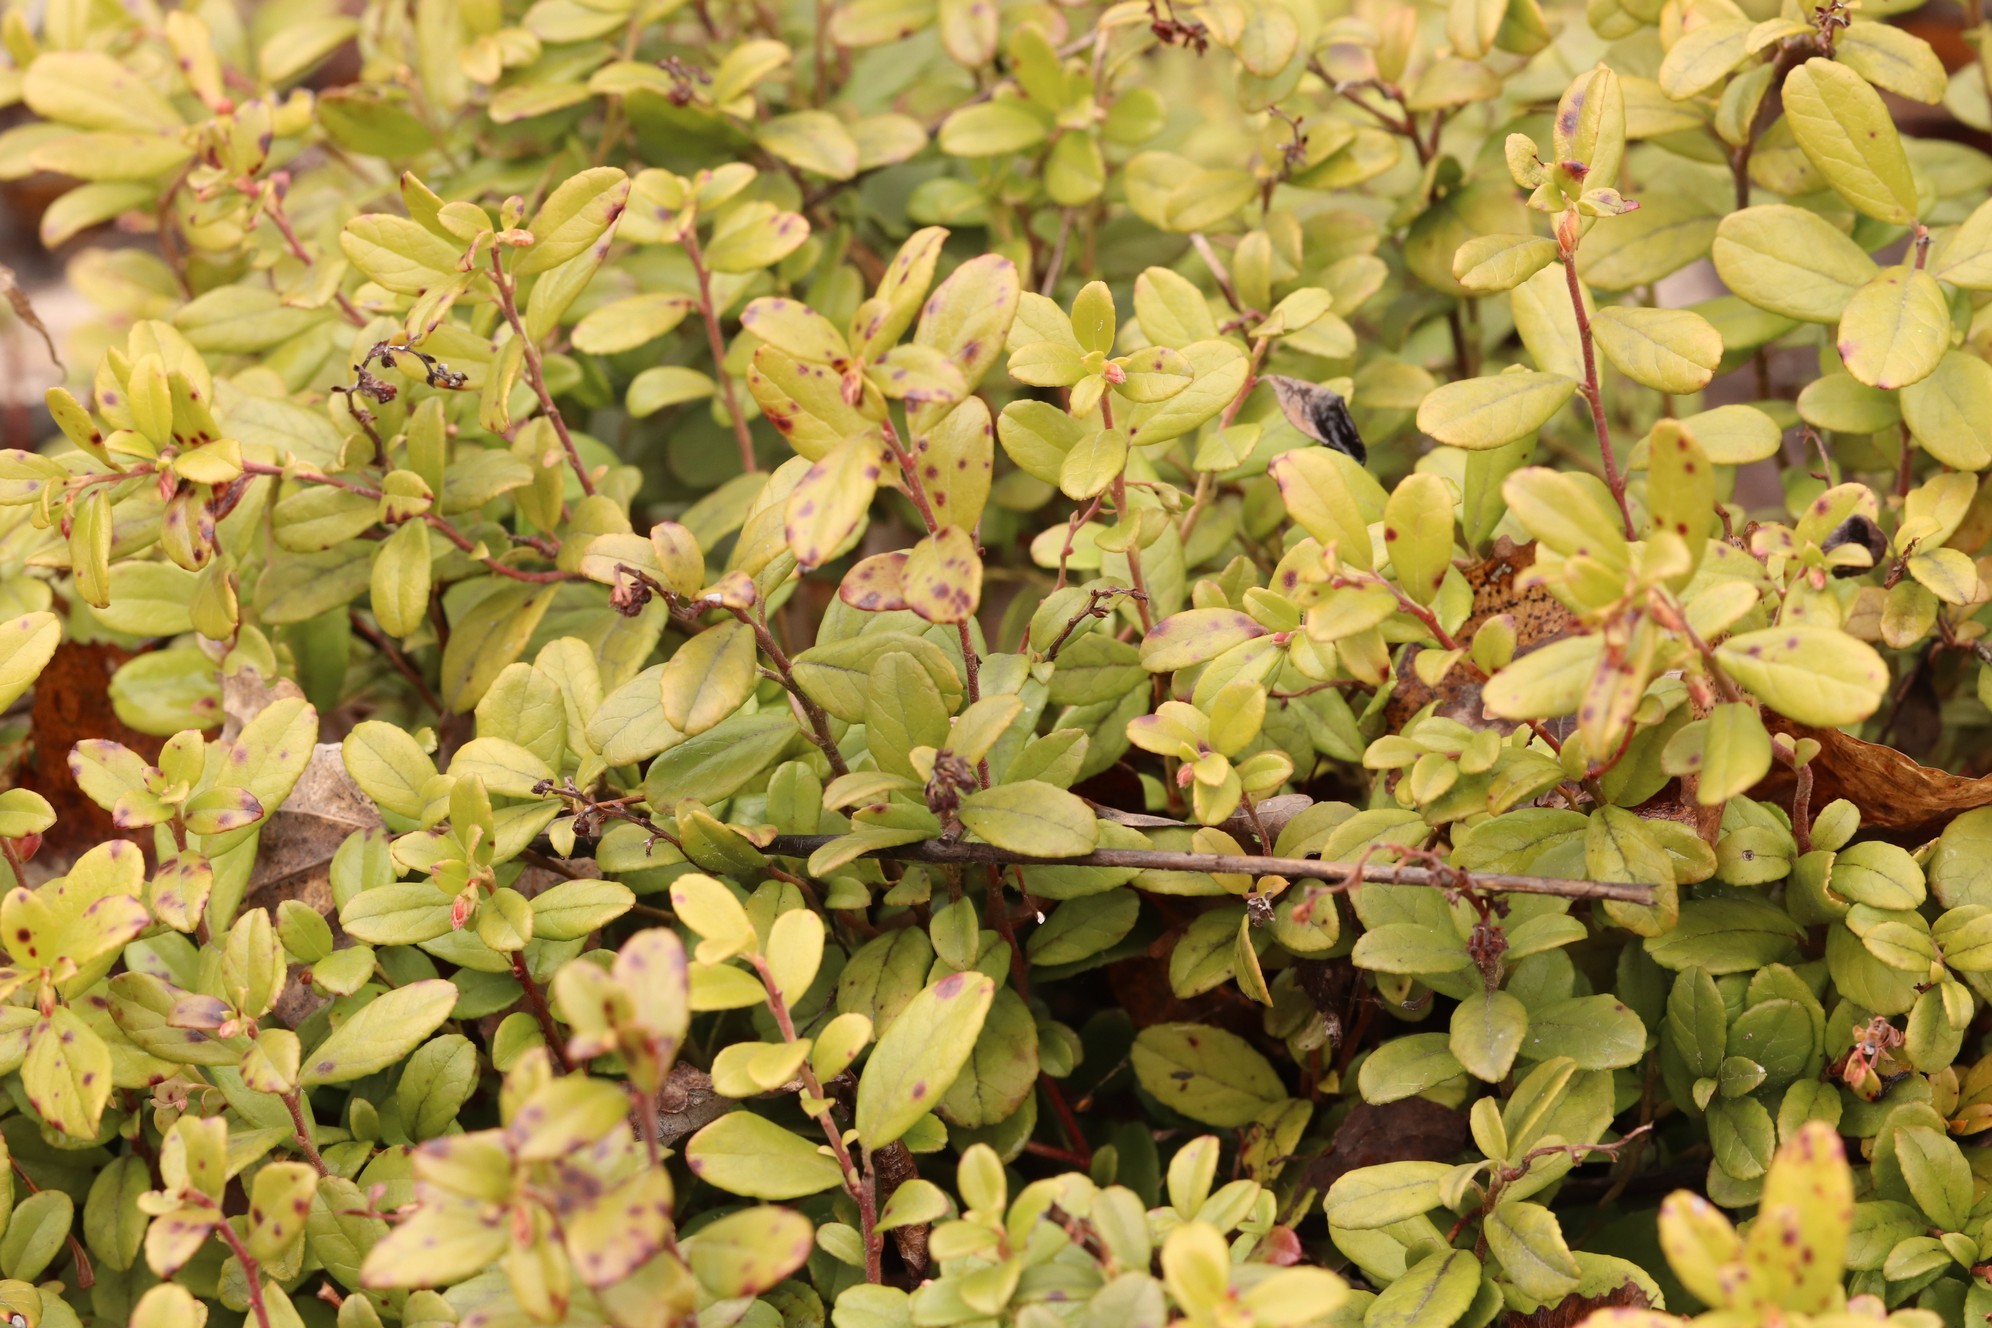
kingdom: Plantae
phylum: Tracheophyta
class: Magnoliopsida
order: Ericales
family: Ericaceae
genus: Vaccinium
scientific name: Vaccinium vitis-idaea
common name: Cowberry
